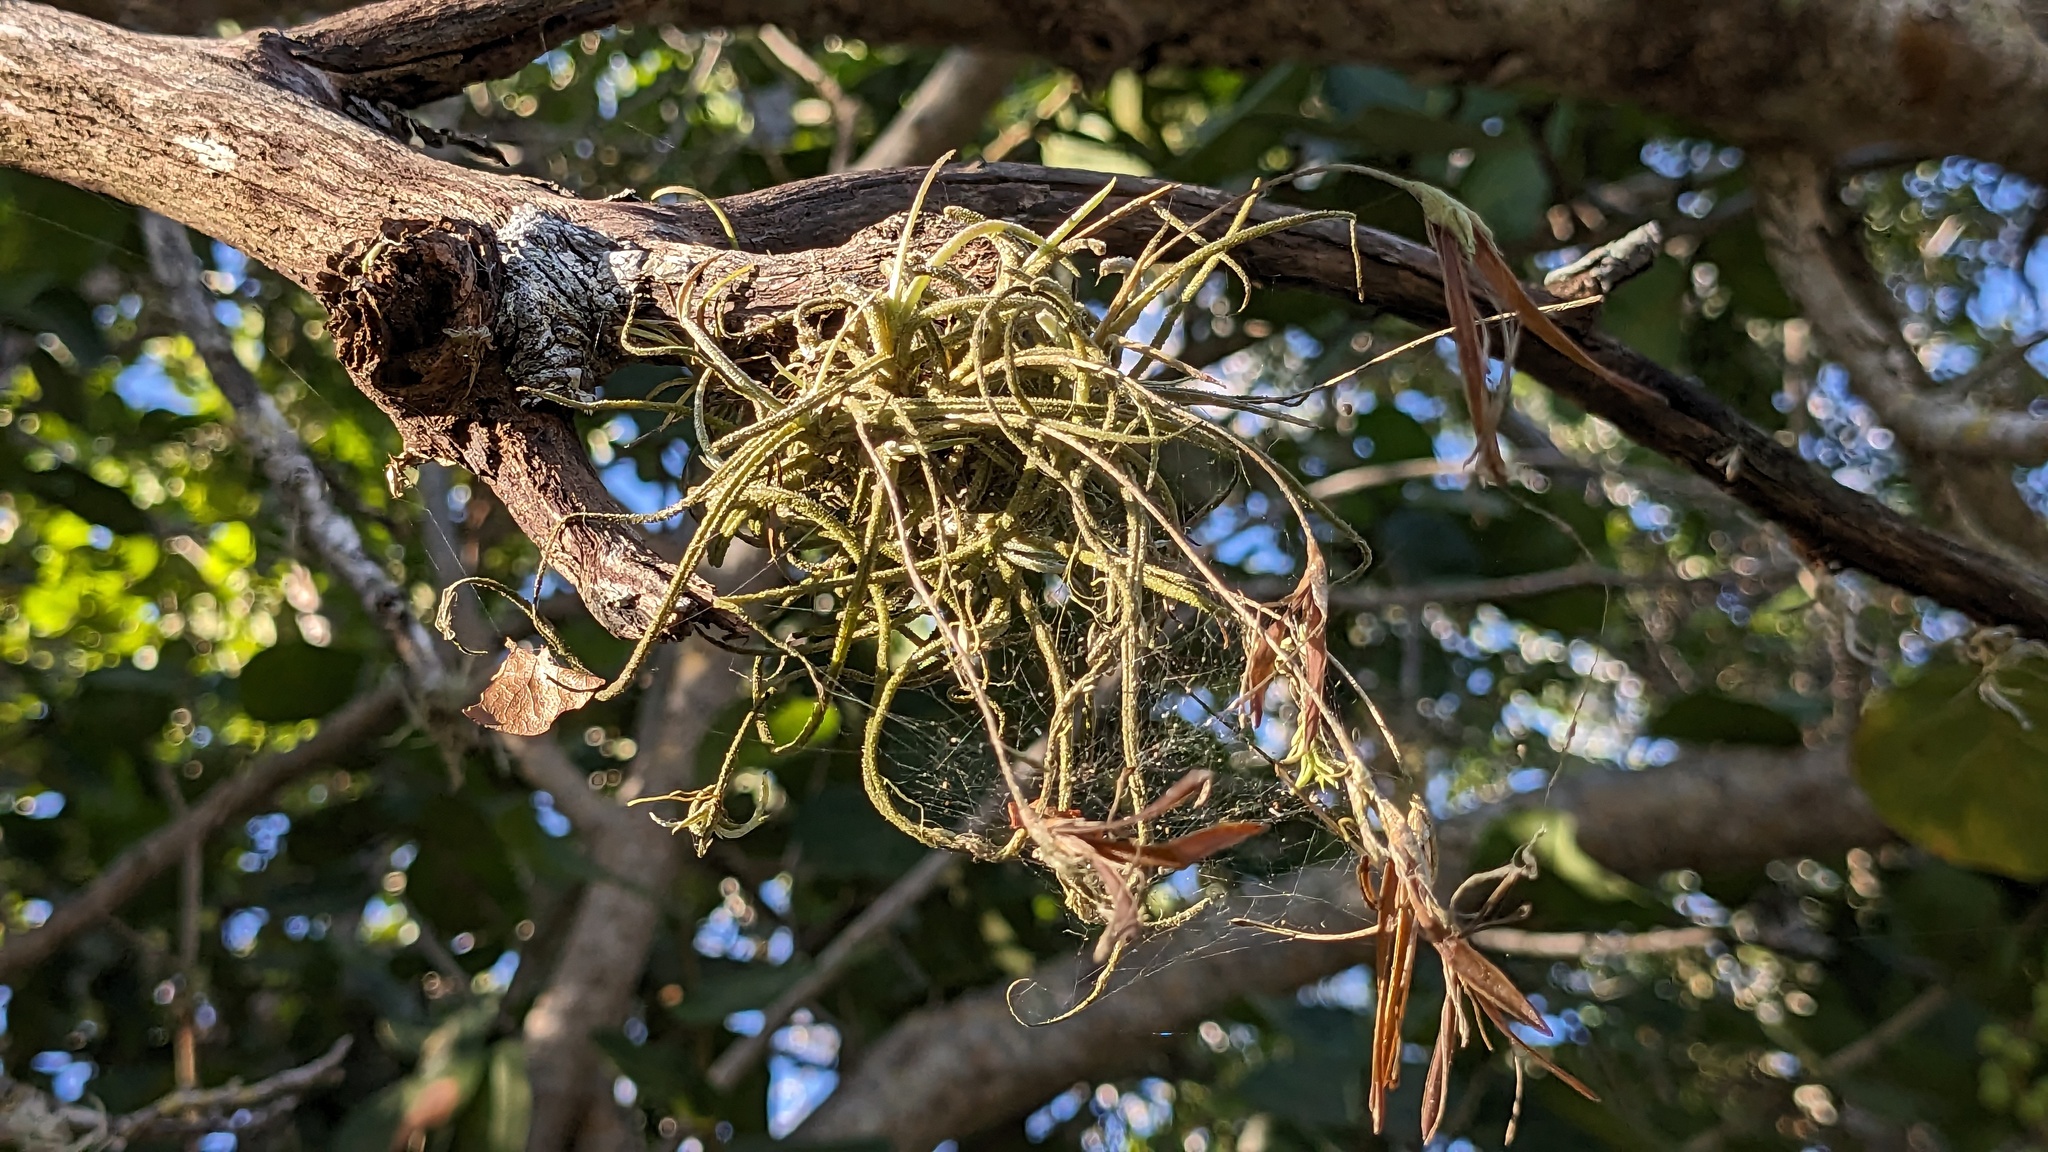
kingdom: Plantae
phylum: Tracheophyta
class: Liliopsida
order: Poales
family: Bromeliaceae
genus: Tillandsia
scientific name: Tillandsia recurvata
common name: Small ballmoss
